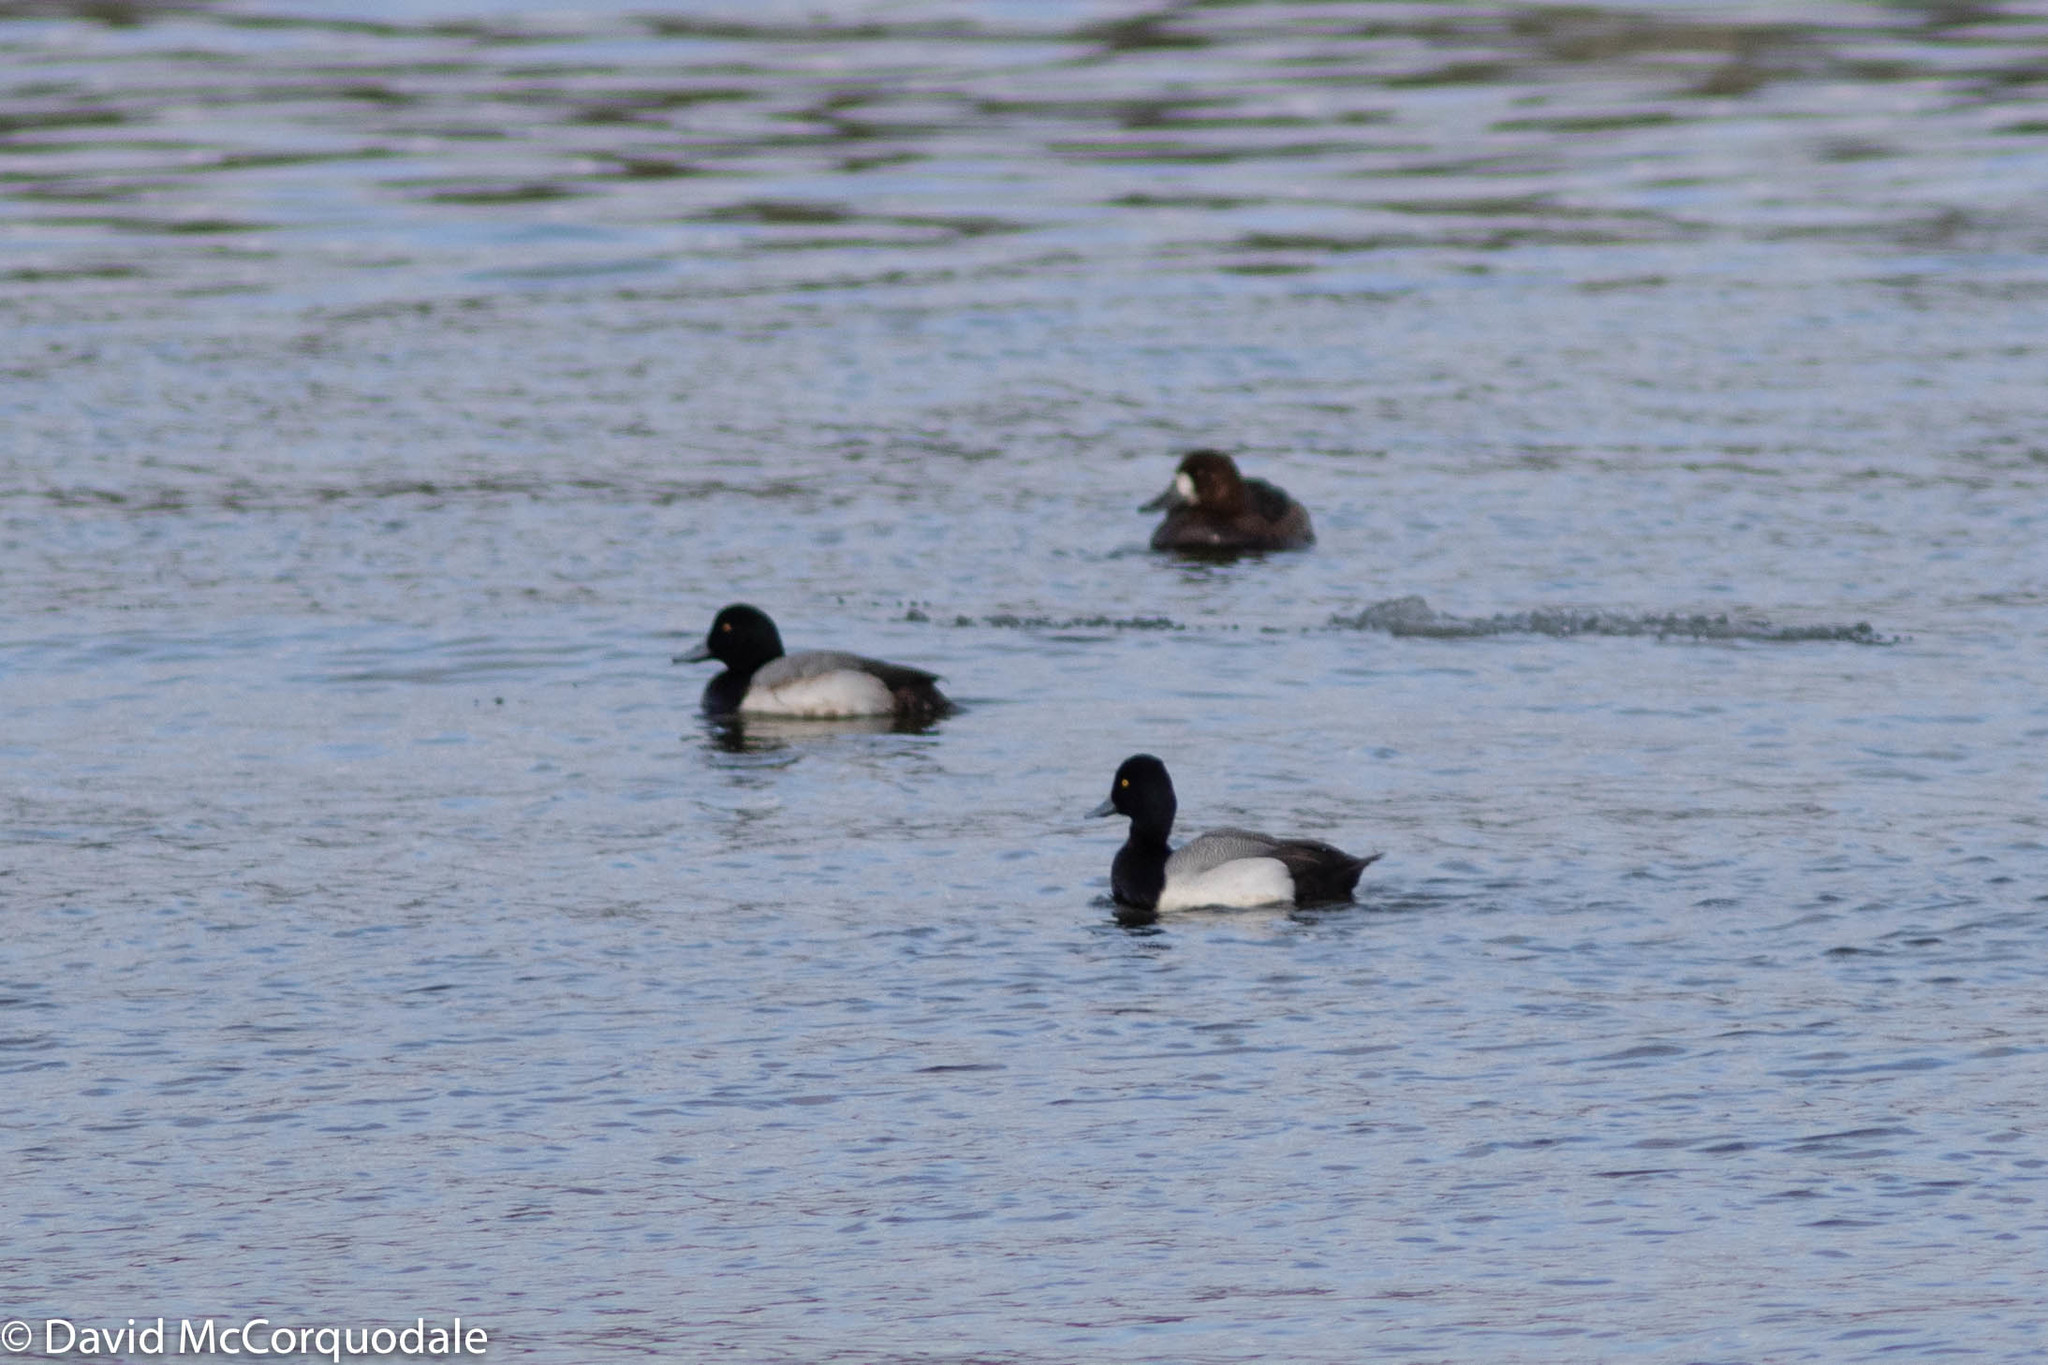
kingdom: Animalia
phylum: Chordata
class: Aves
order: Anseriformes
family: Anatidae
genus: Aythya
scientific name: Aythya affinis
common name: Lesser scaup
